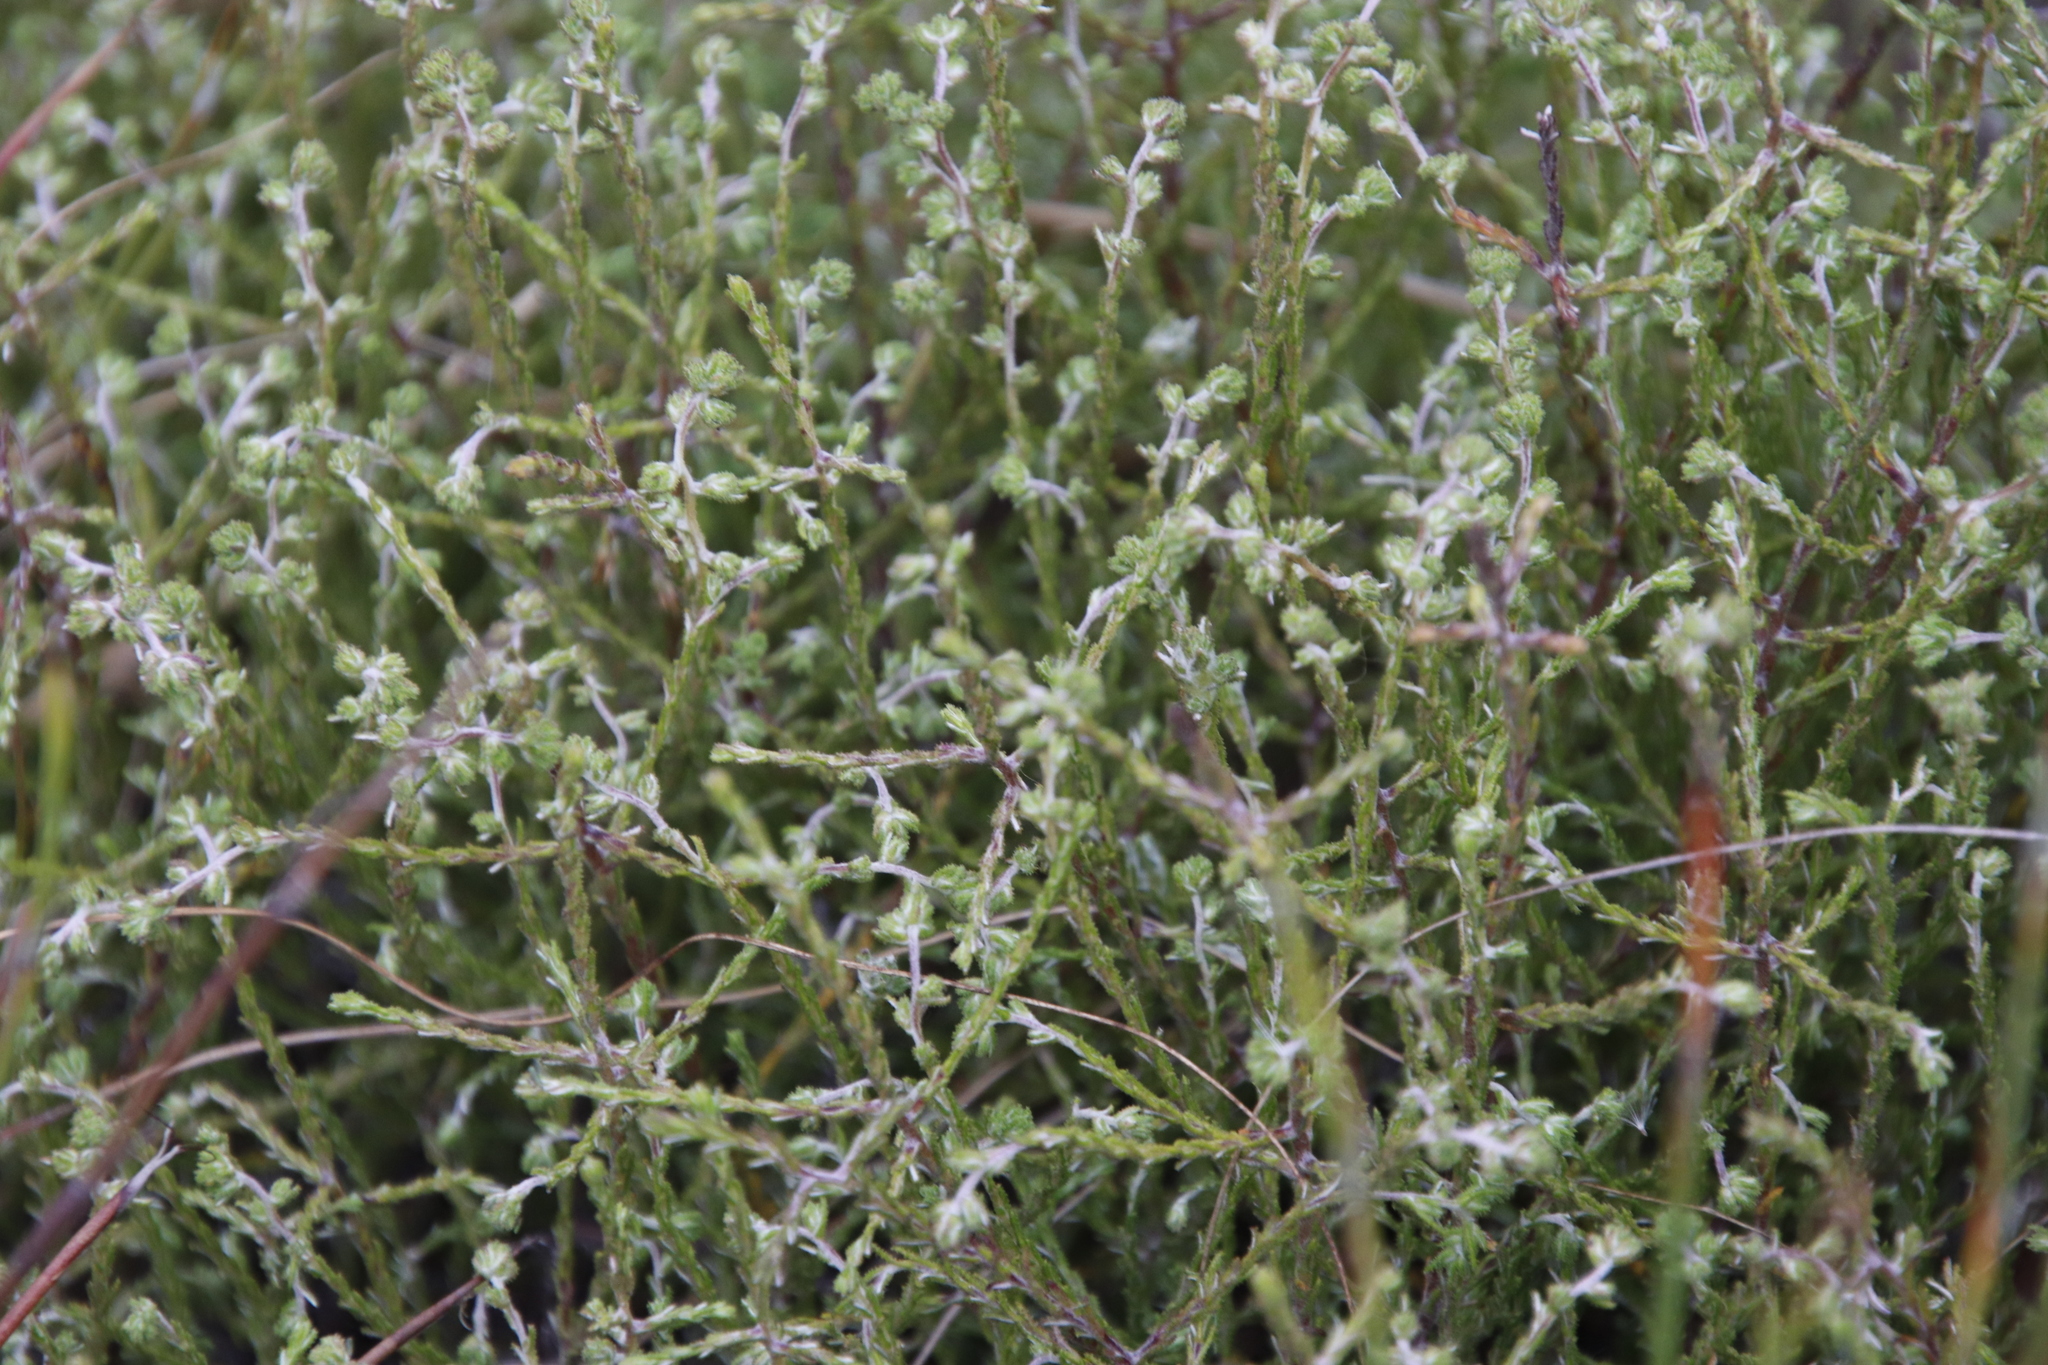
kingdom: Plantae
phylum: Tracheophyta
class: Magnoliopsida
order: Asterales
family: Asteraceae
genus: Myrovernix
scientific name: Myrovernix scaber
